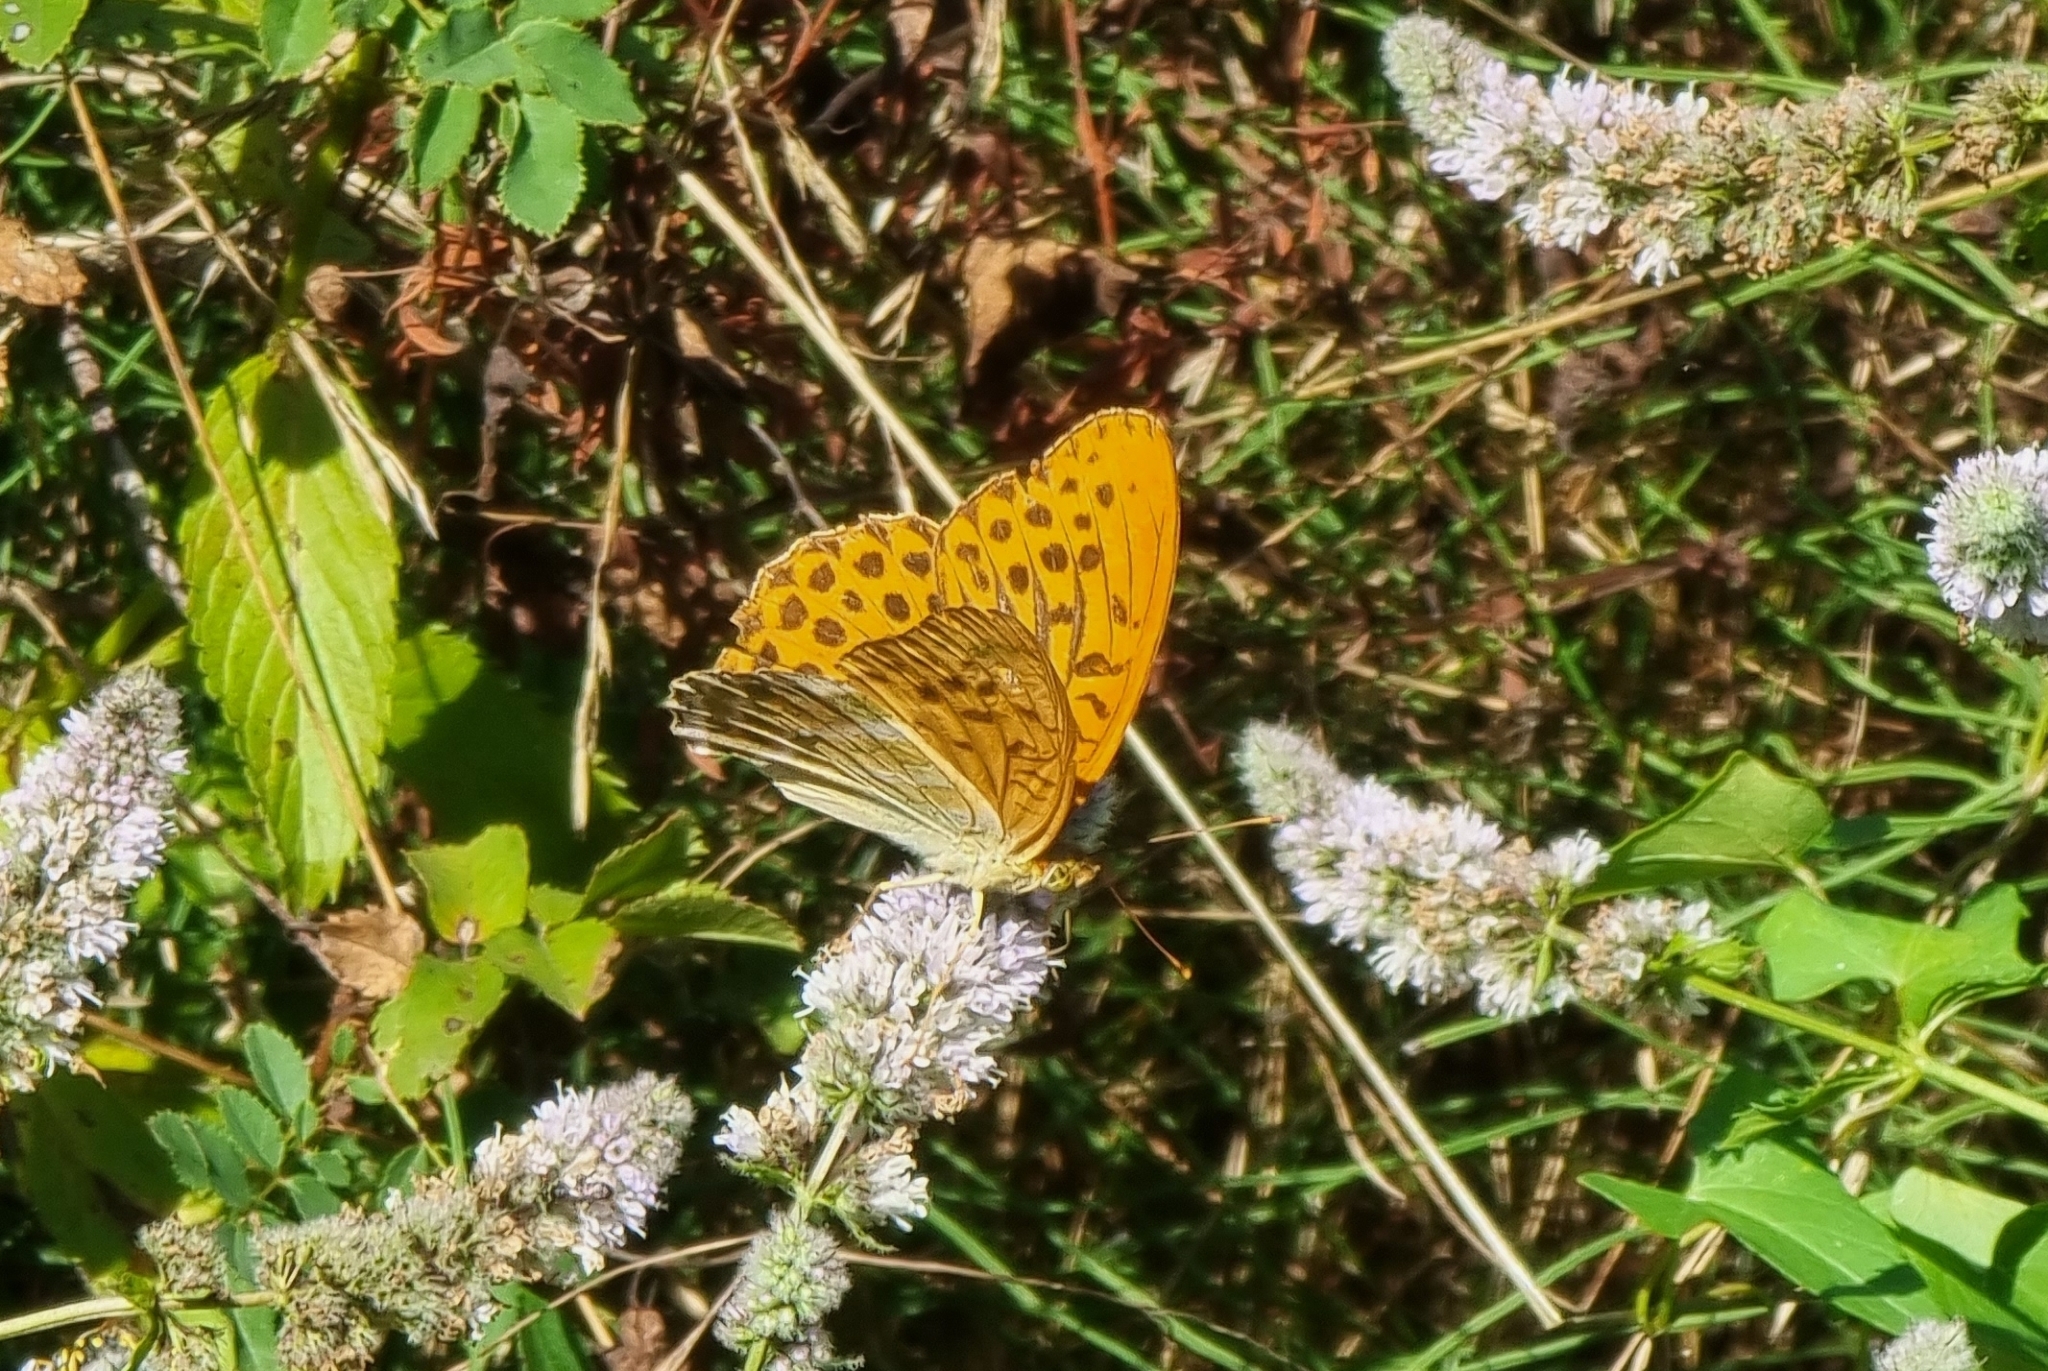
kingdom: Animalia
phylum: Arthropoda
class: Insecta
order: Lepidoptera
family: Nymphalidae
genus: Argynnis
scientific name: Argynnis paphia
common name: Silver-washed fritillary
